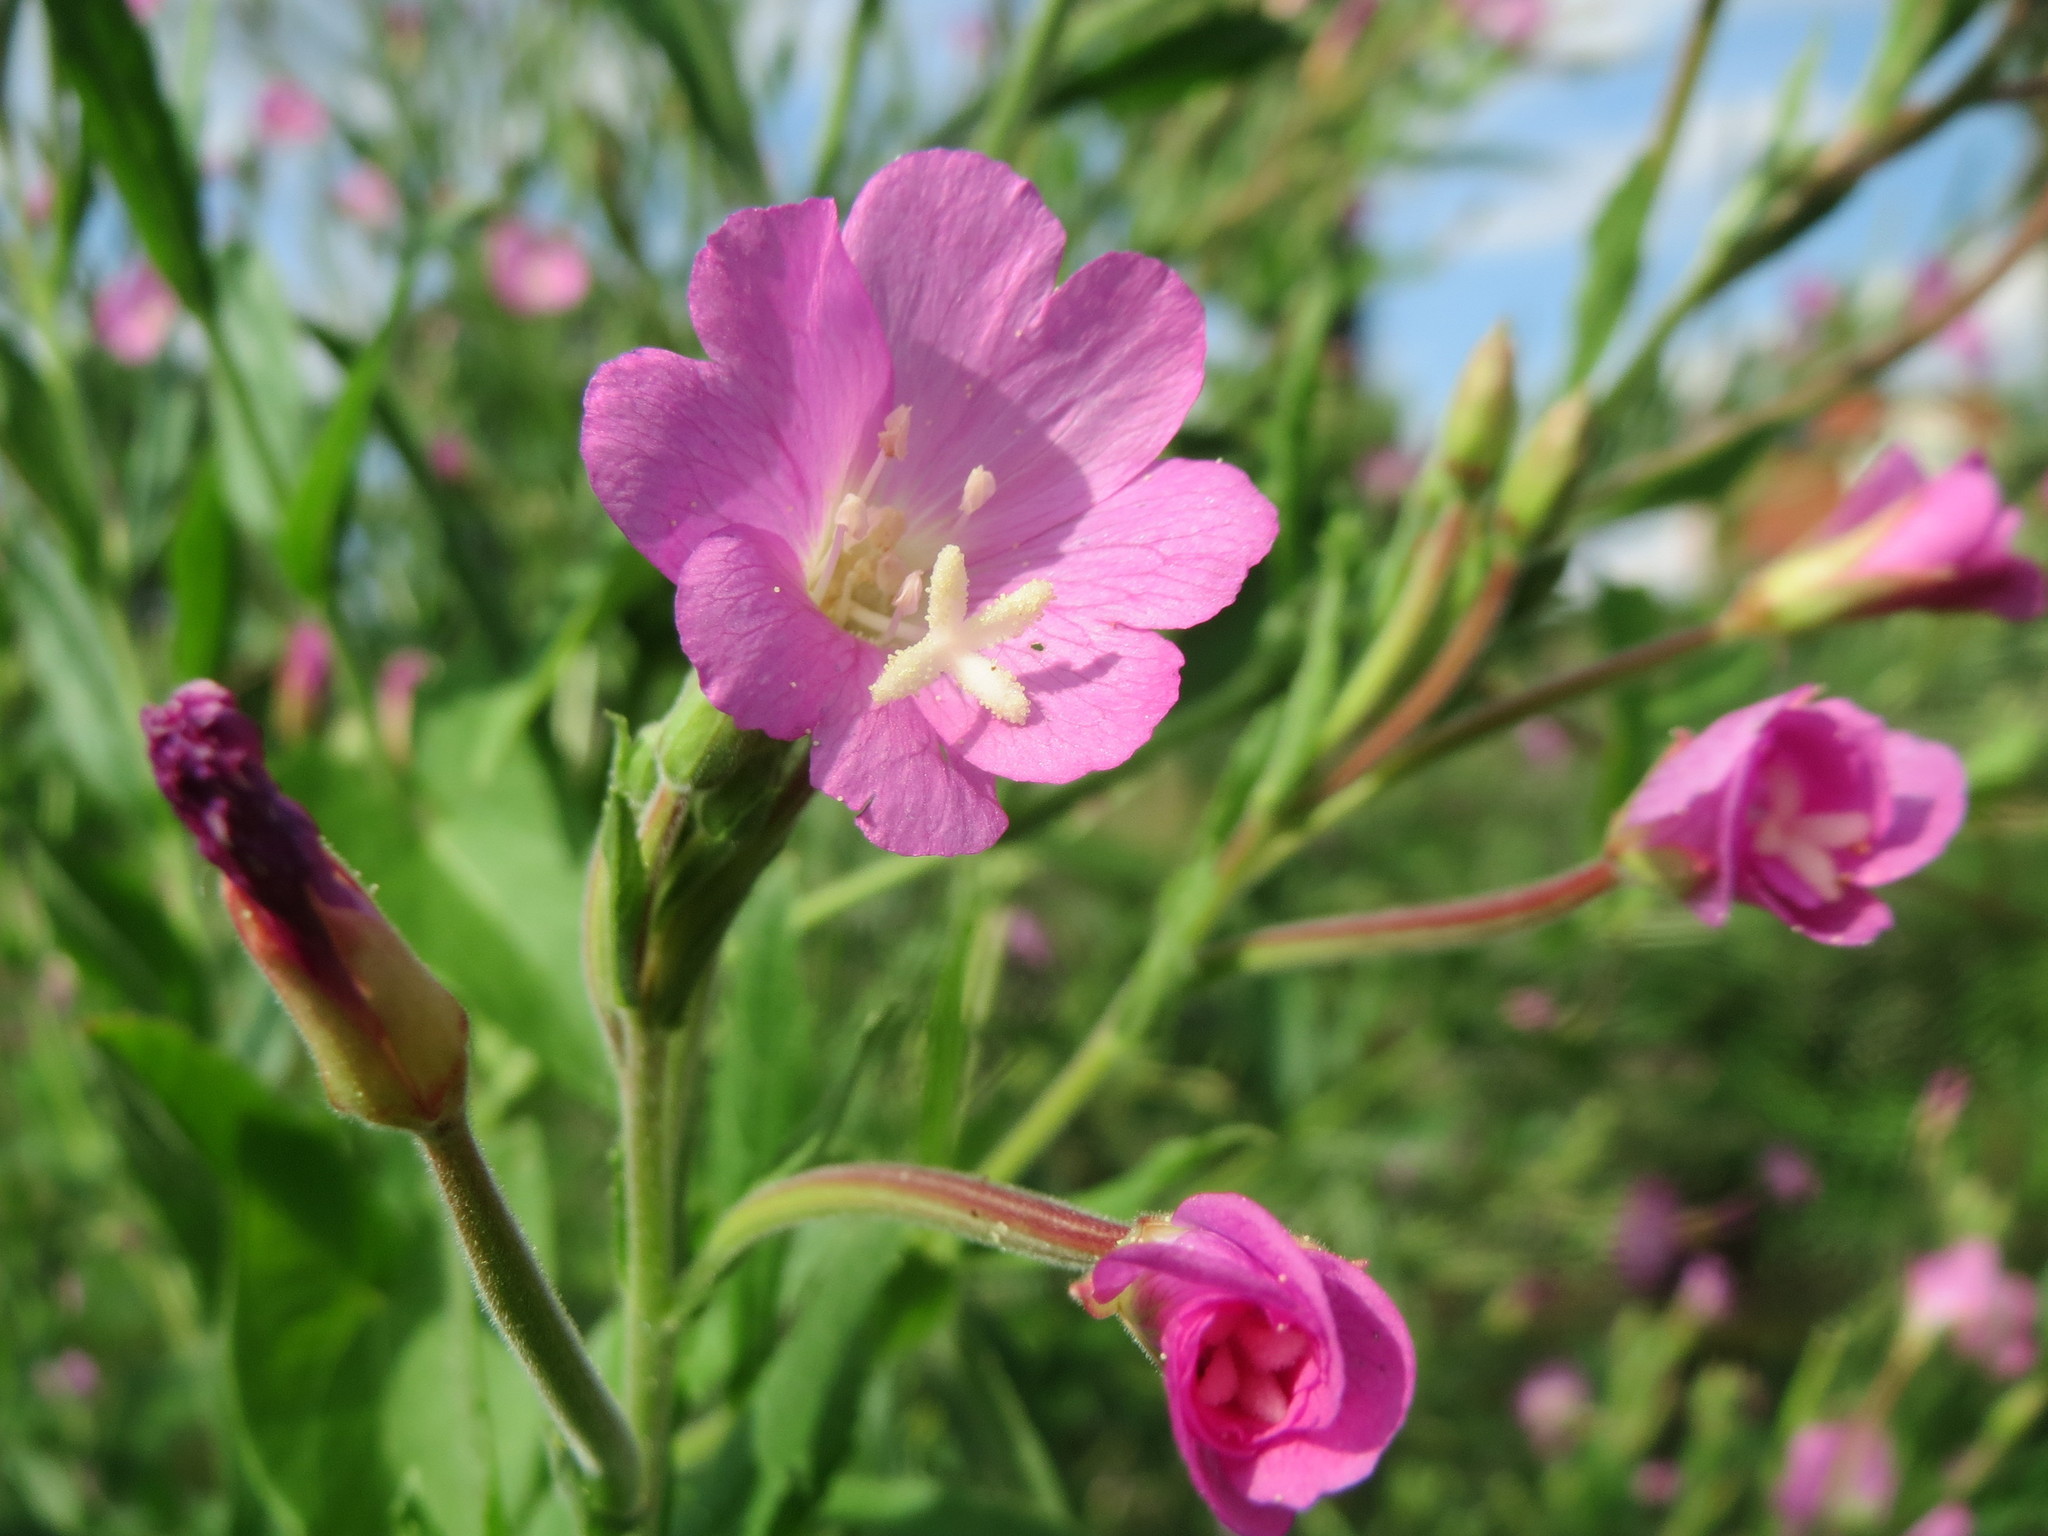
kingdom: Plantae
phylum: Tracheophyta
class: Magnoliopsida
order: Myrtales
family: Onagraceae
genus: Epilobium
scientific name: Epilobium hirsutum
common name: Great willowherb
